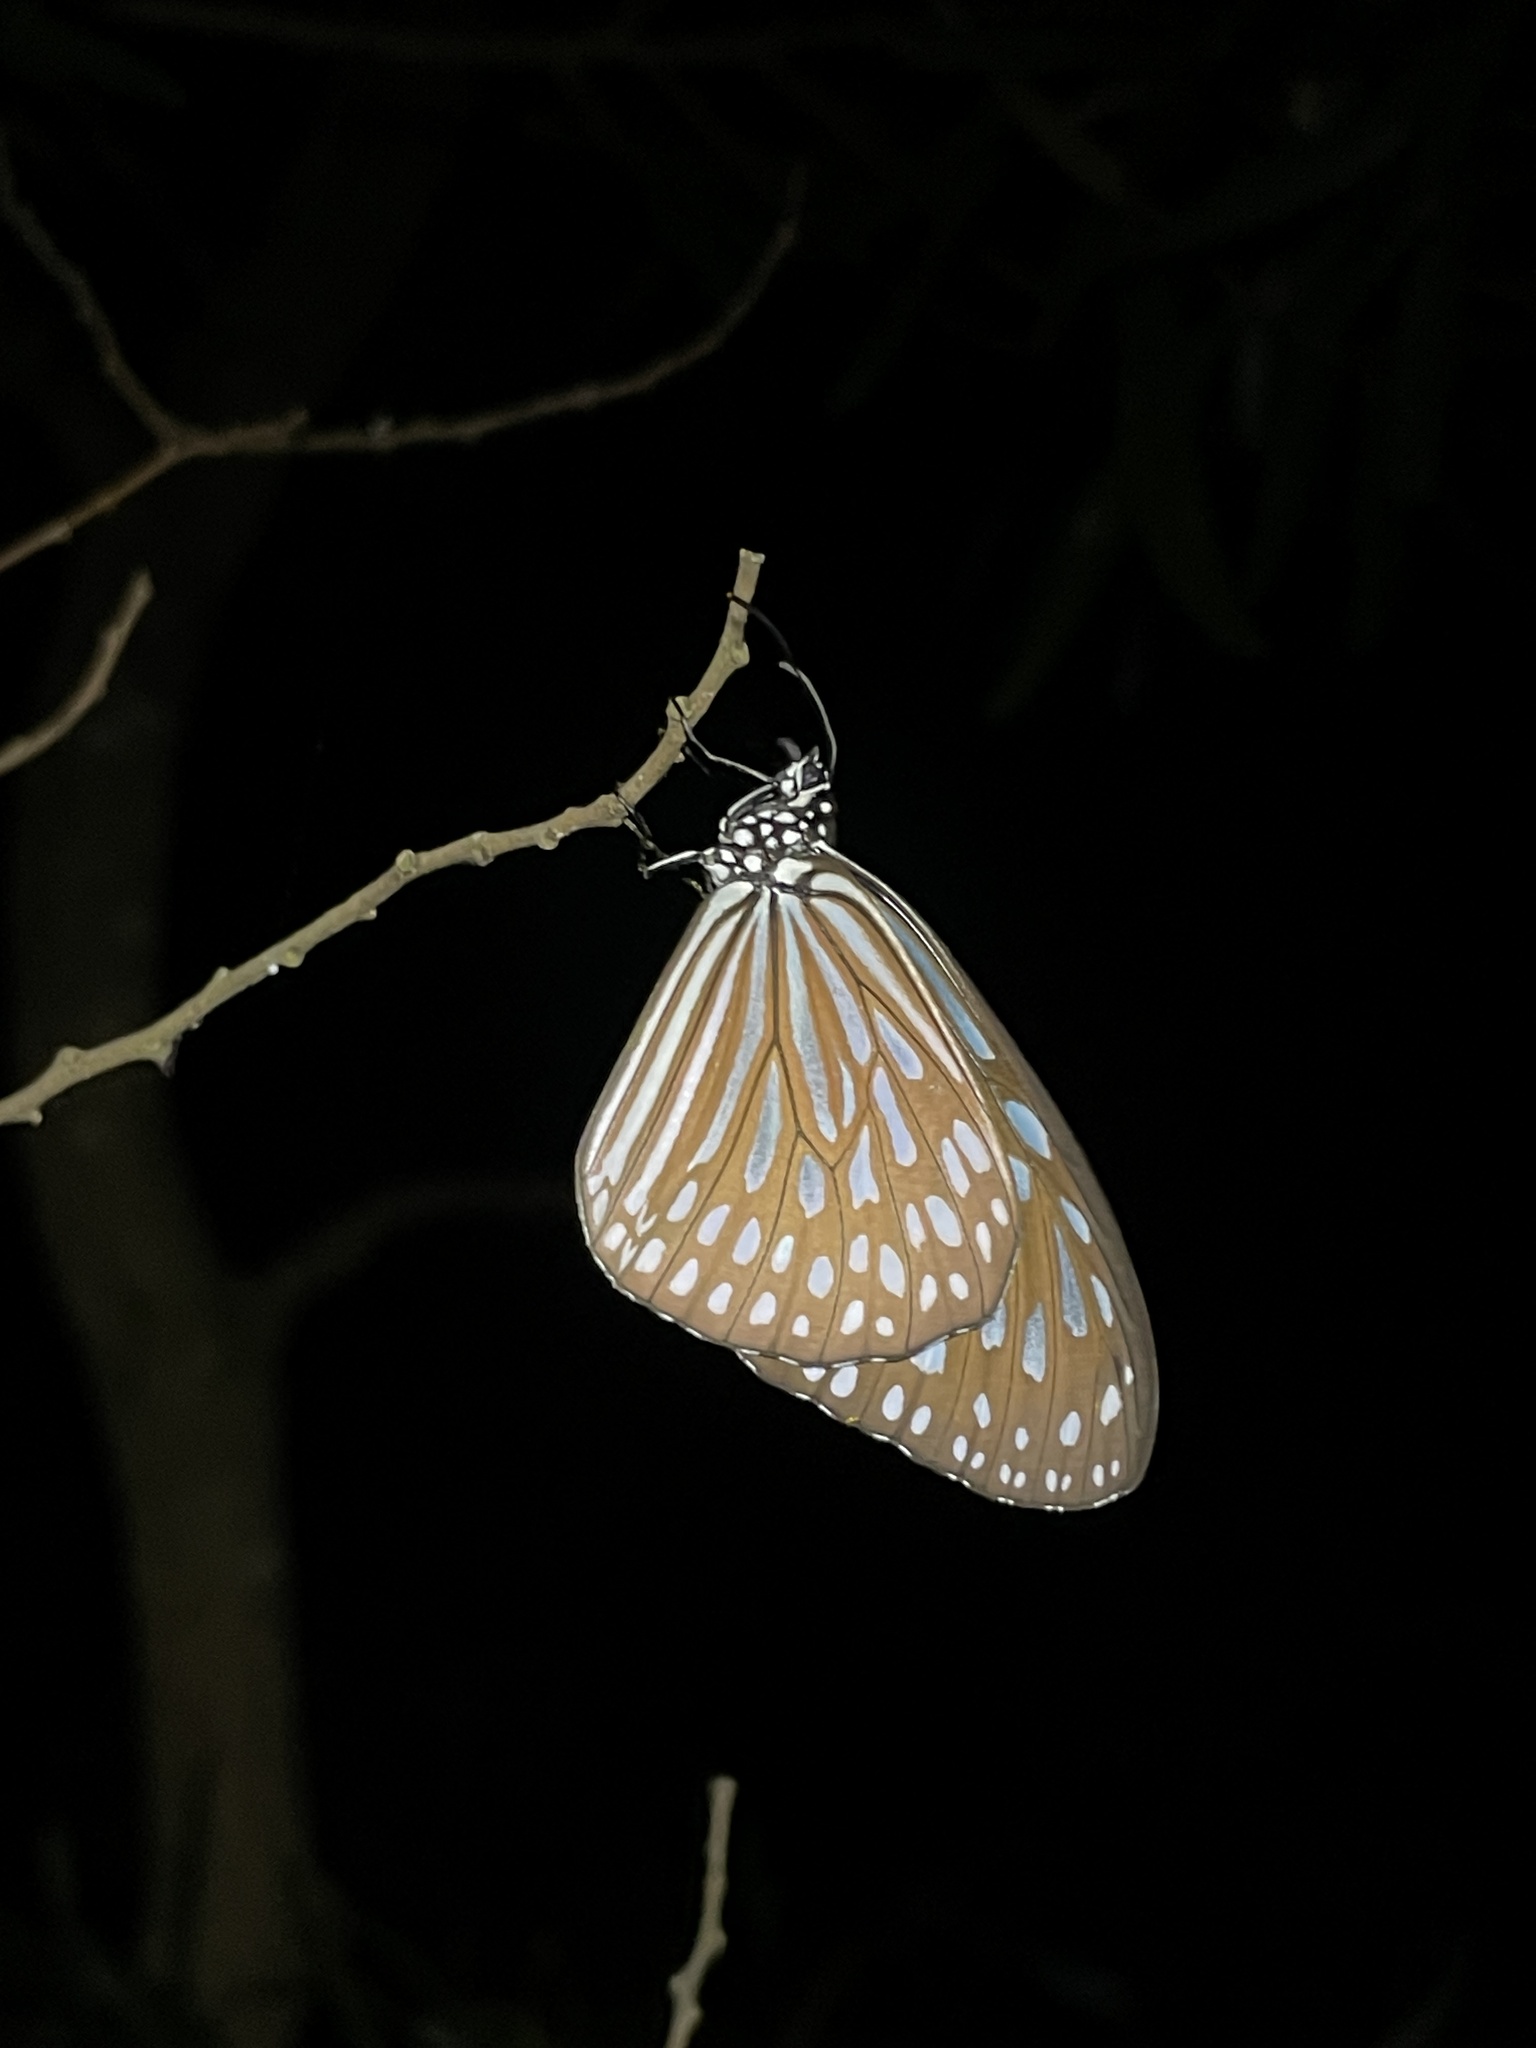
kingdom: Animalia
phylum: Arthropoda
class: Insecta
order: Lepidoptera
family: Nymphalidae
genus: Ideopsis
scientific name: Ideopsis similis
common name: Ceylon blue glassy tiger
